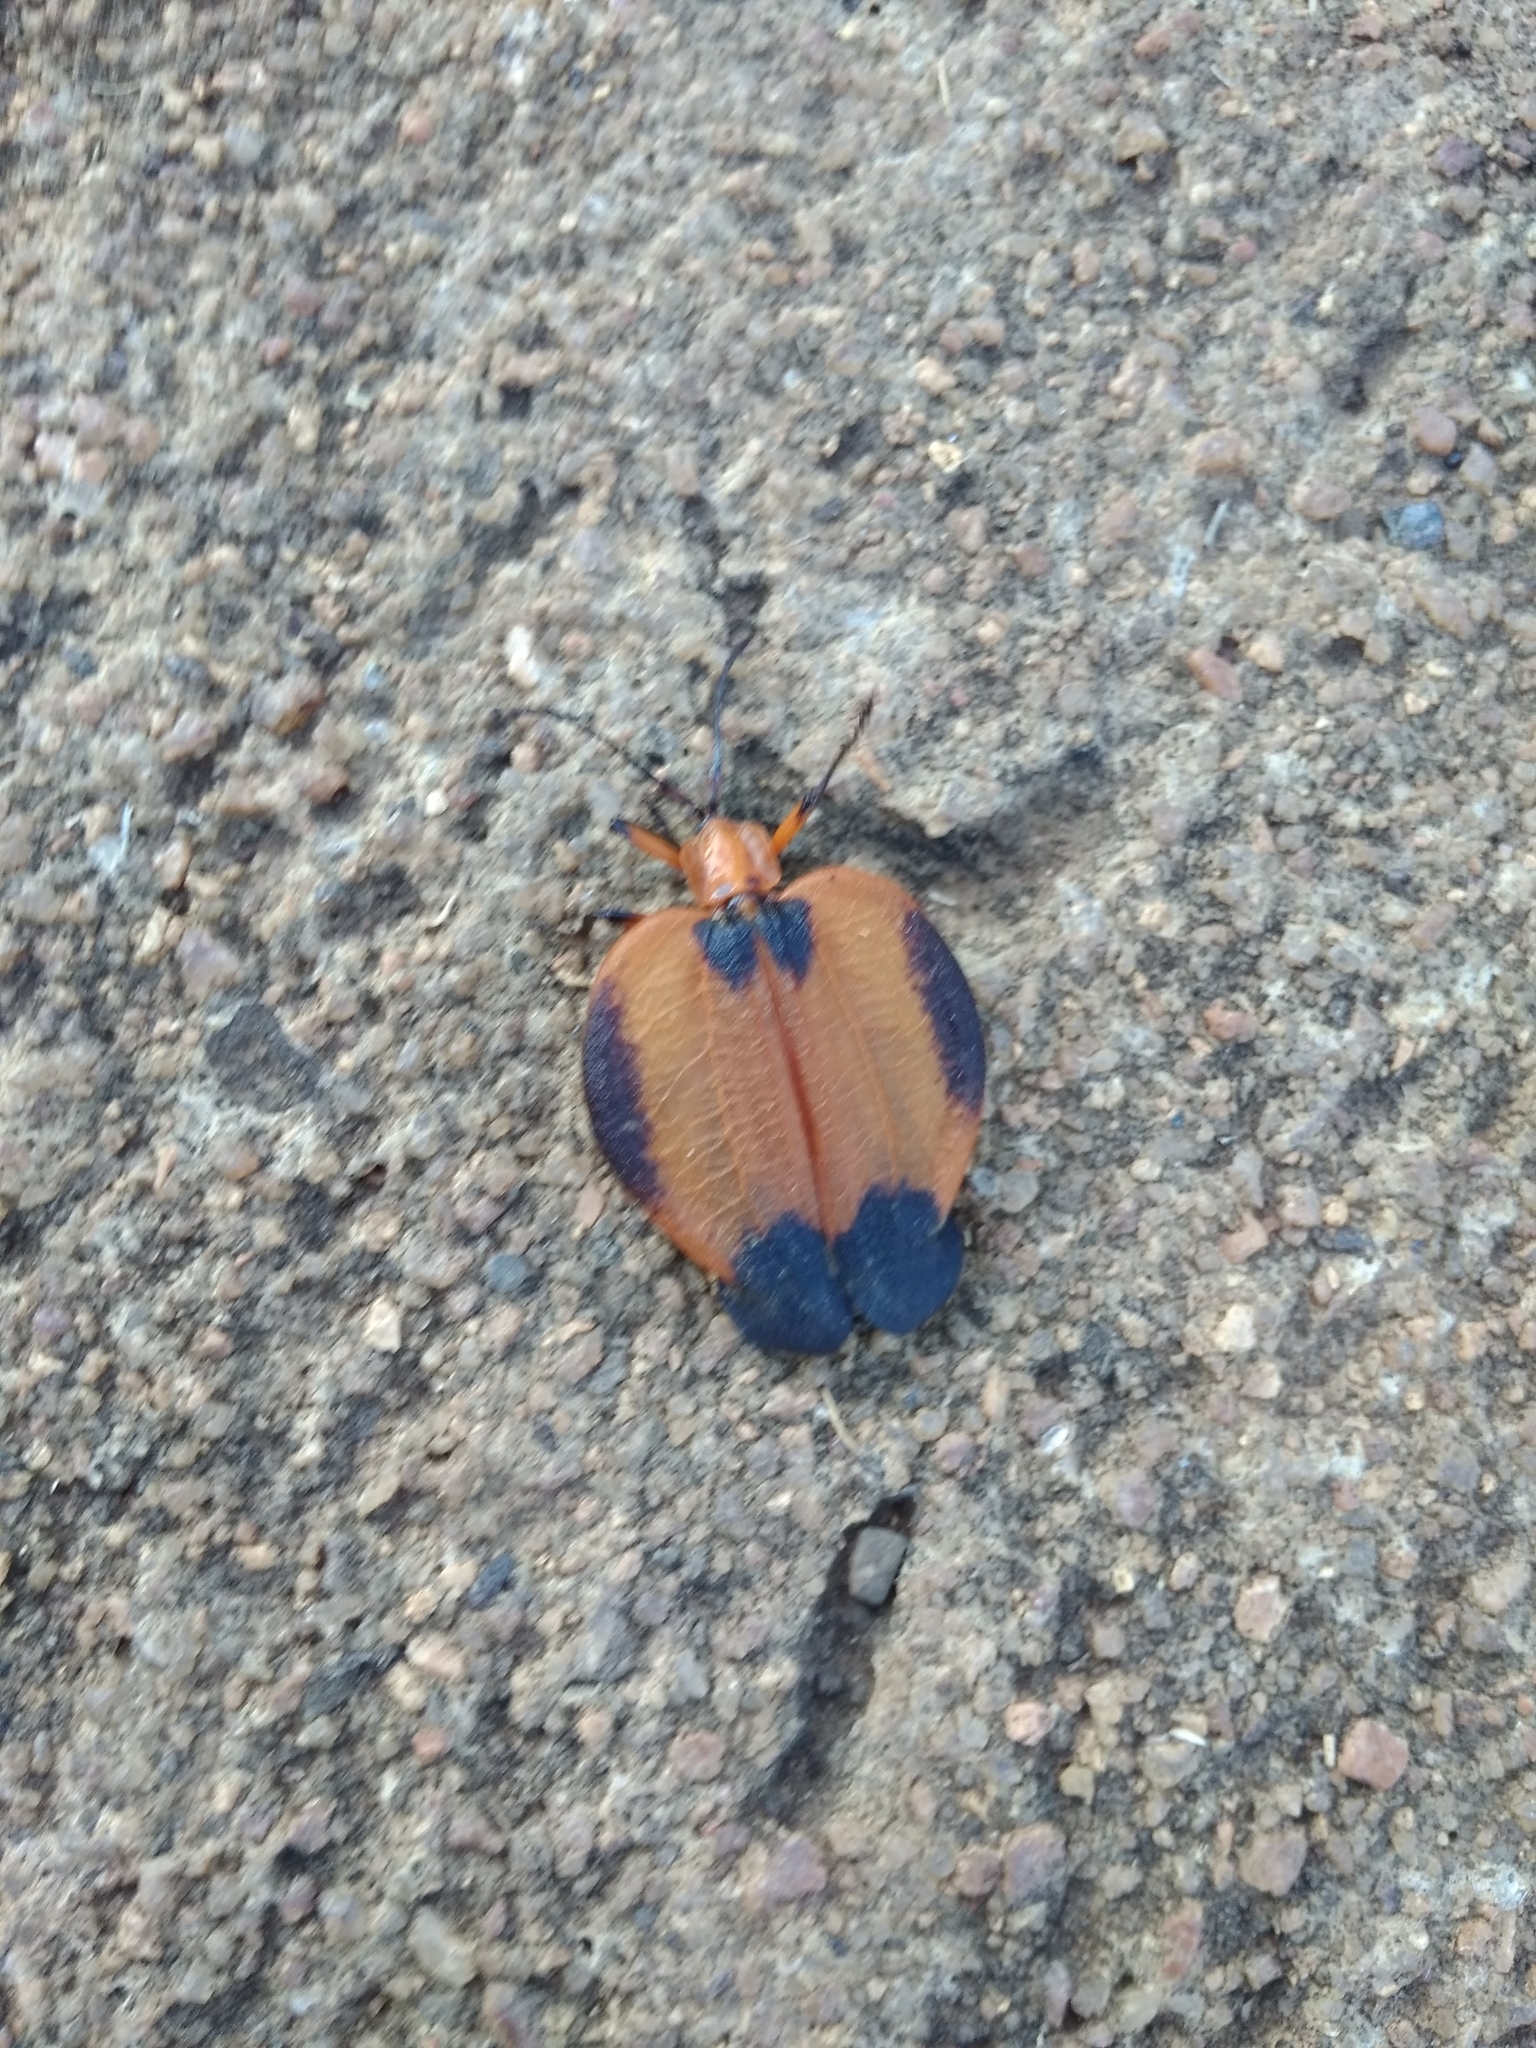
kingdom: Animalia
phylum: Arthropoda
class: Insecta
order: Coleoptera
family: Lycidae
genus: Lycus
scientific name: Lycus
